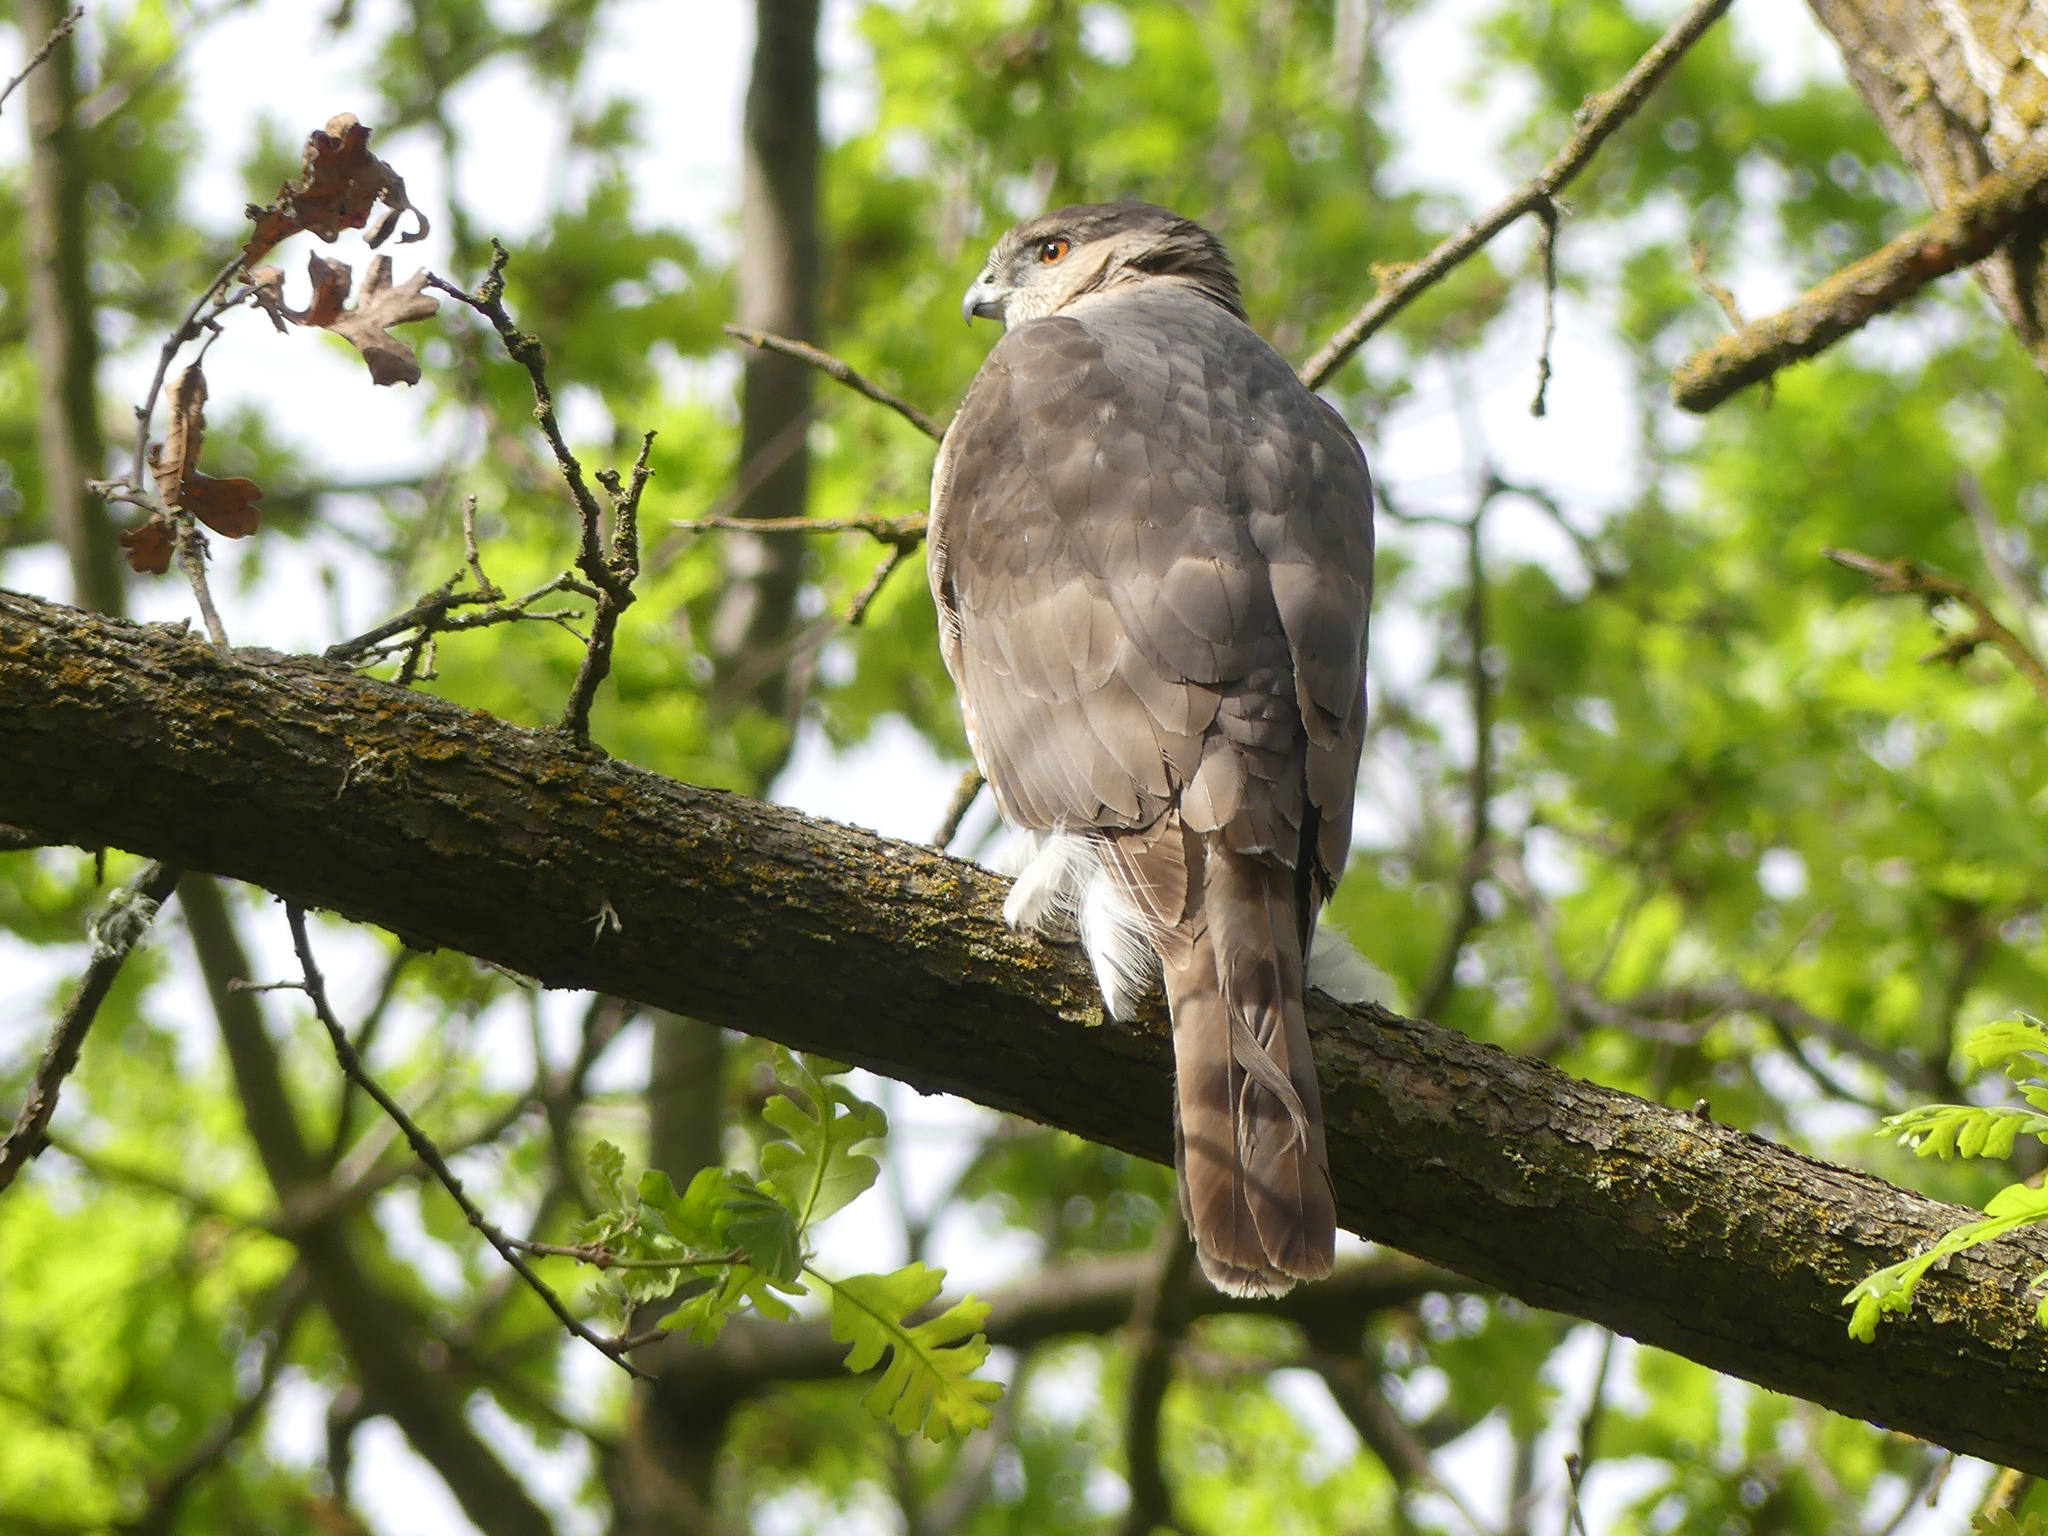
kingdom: Animalia
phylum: Chordata
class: Aves
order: Accipitriformes
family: Accipitridae
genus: Accipiter
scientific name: Accipiter cooperii
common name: Cooper's hawk
